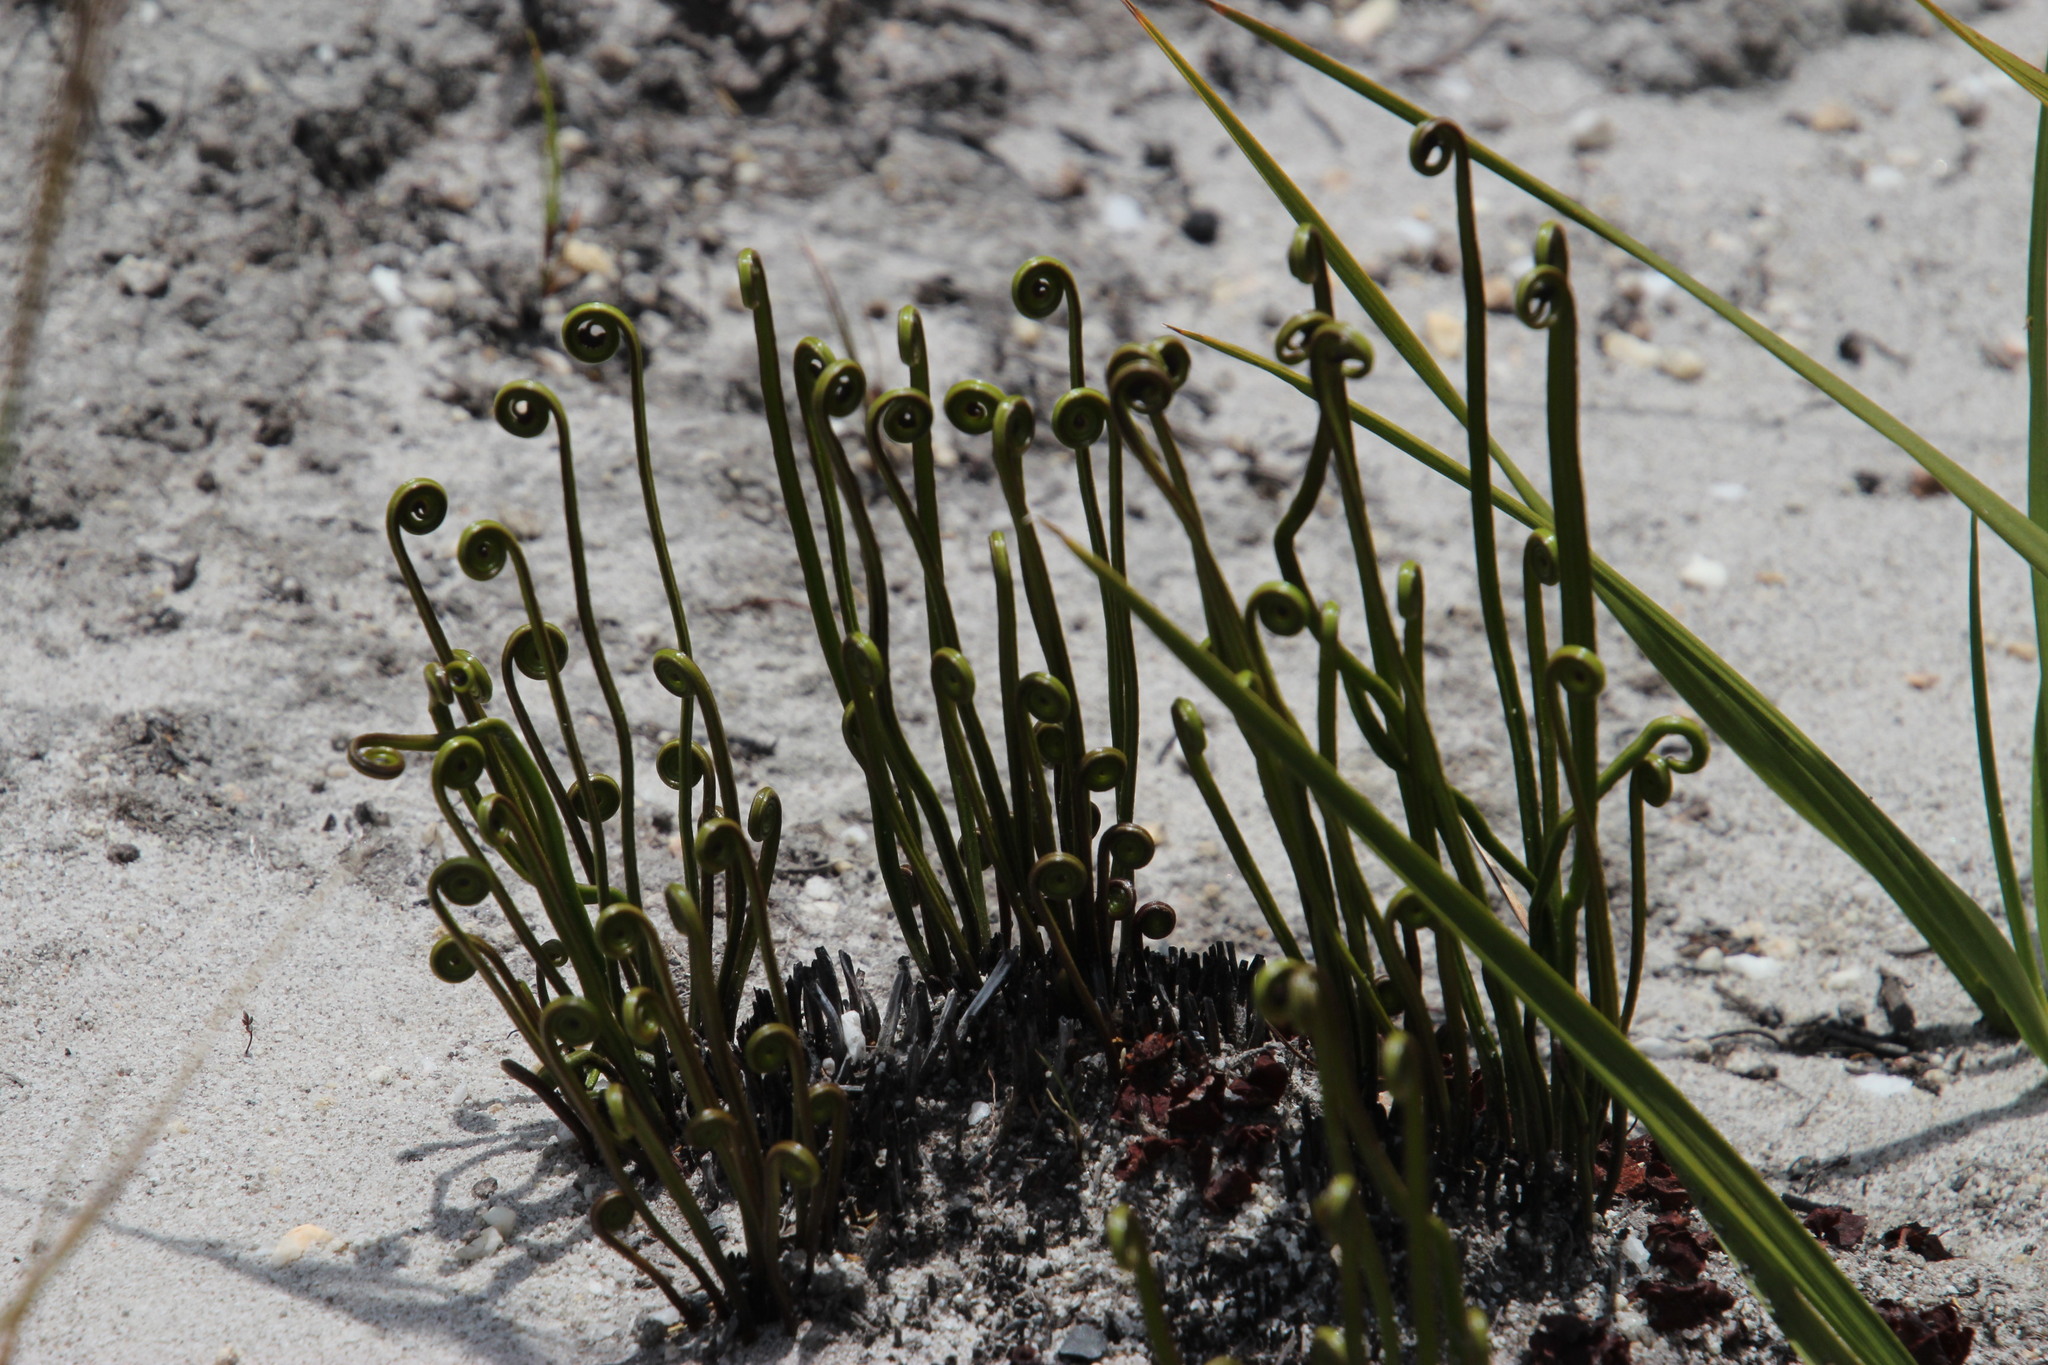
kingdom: Plantae
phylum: Tracheophyta
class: Polypodiopsida
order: Schizaeales
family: Schizaeaceae
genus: Schizaea
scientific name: Schizaea pectinata
